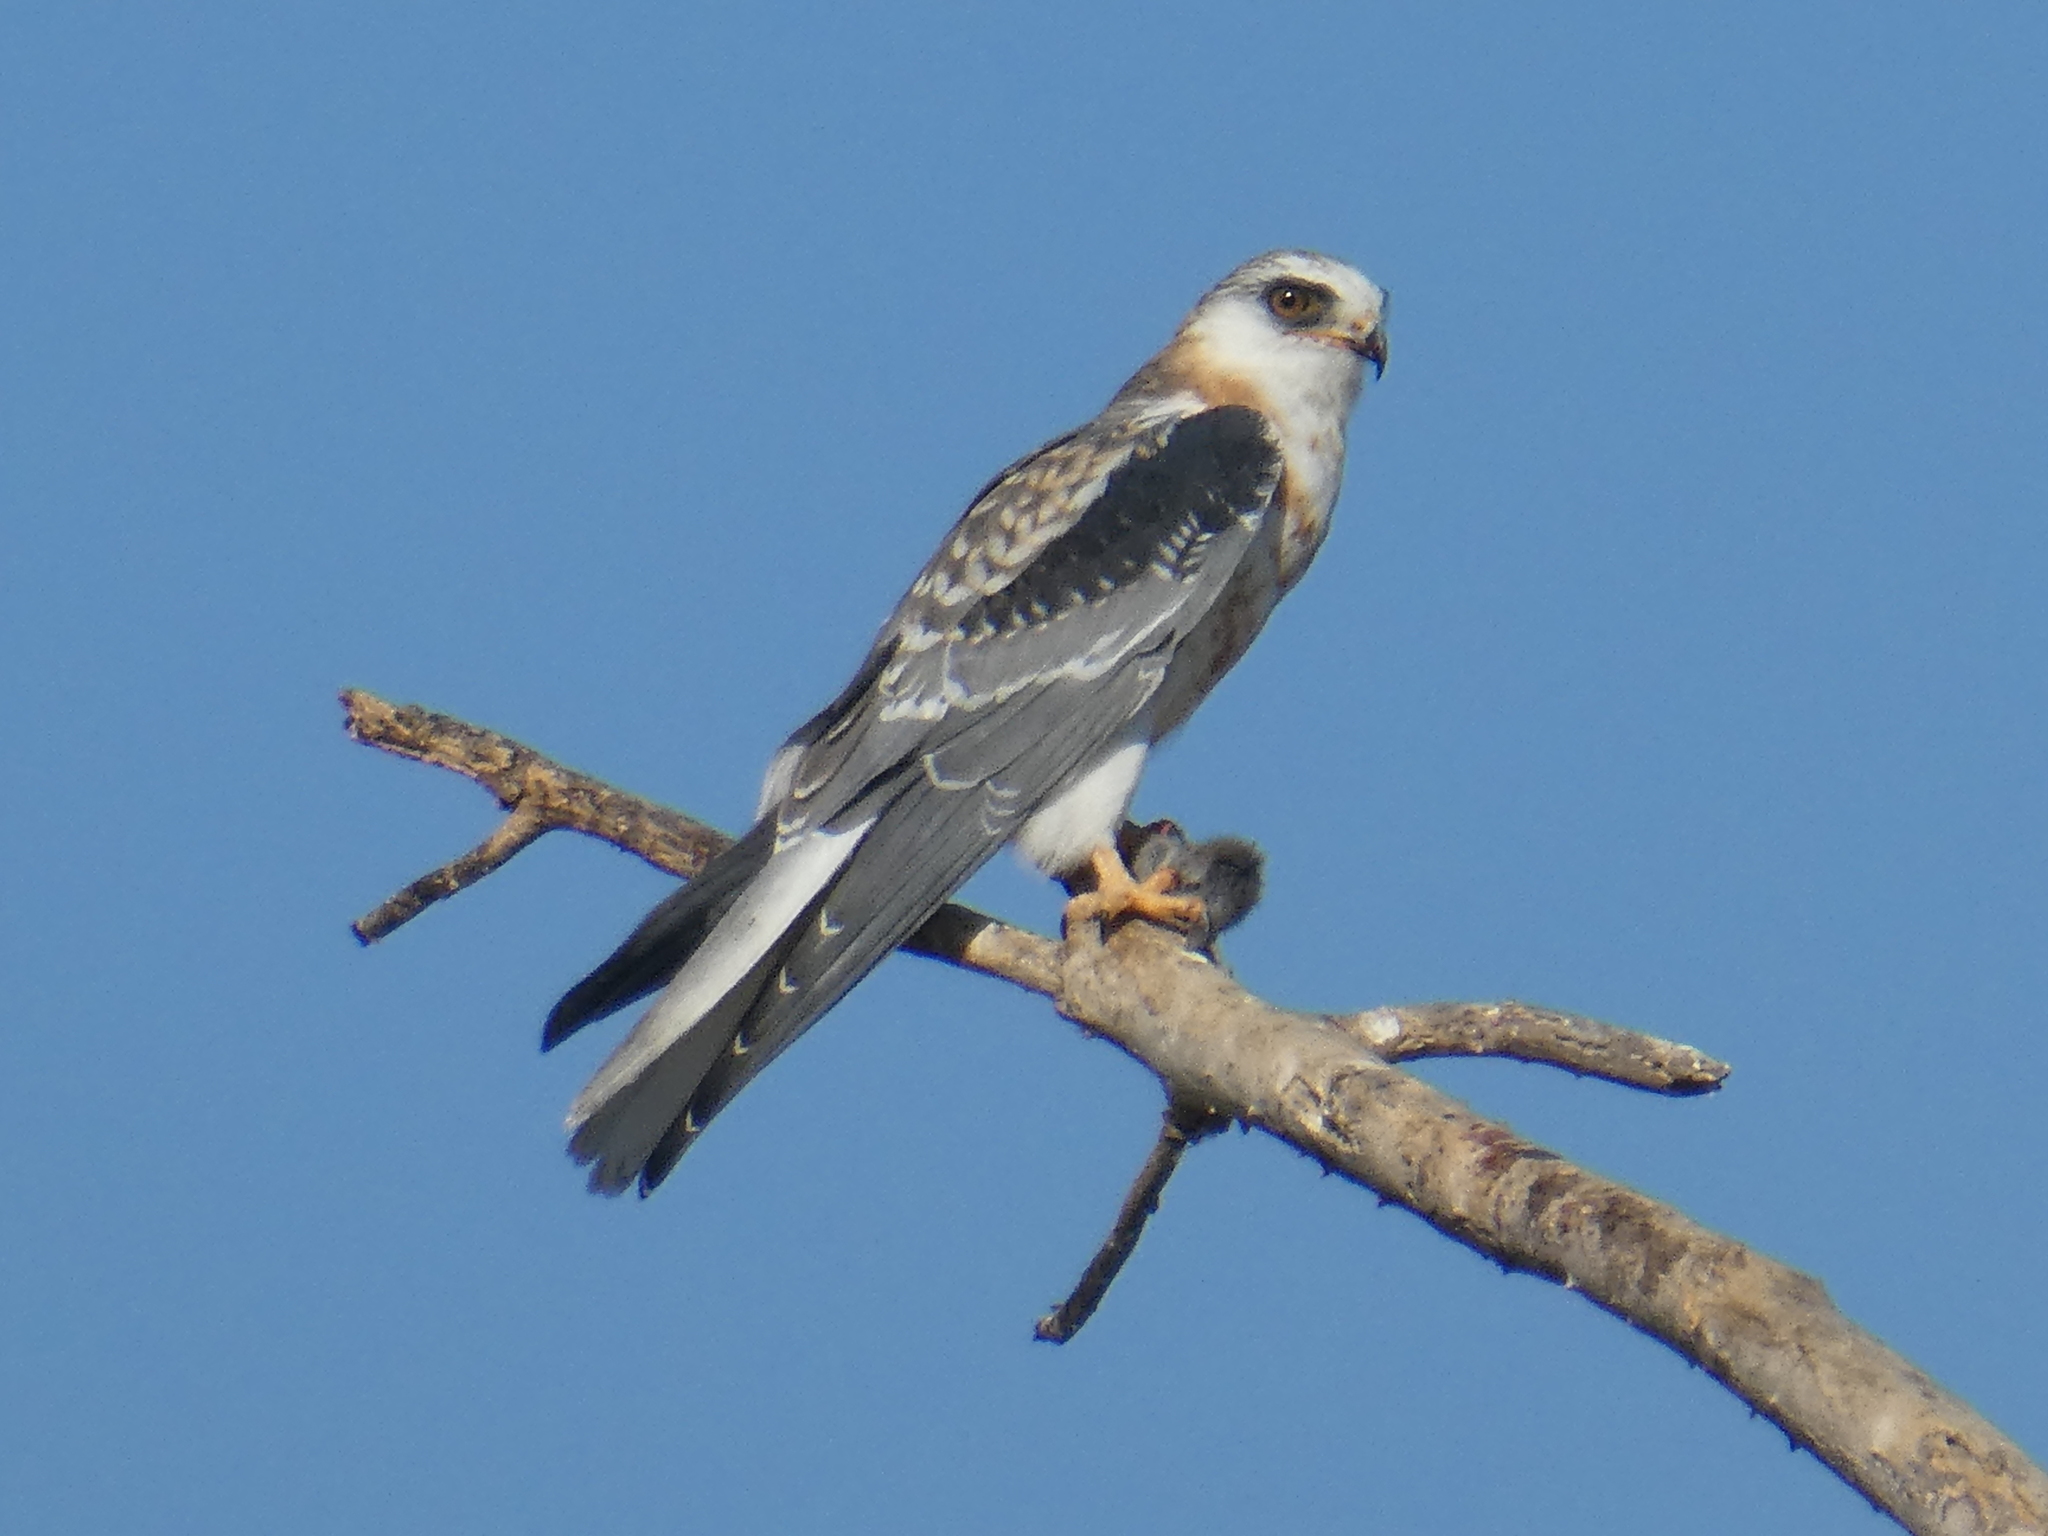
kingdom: Animalia
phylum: Chordata
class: Aves
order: Accipitriformes
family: Accipitridae
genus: Elanus
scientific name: Elanus leucurus
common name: White-tailed kite
